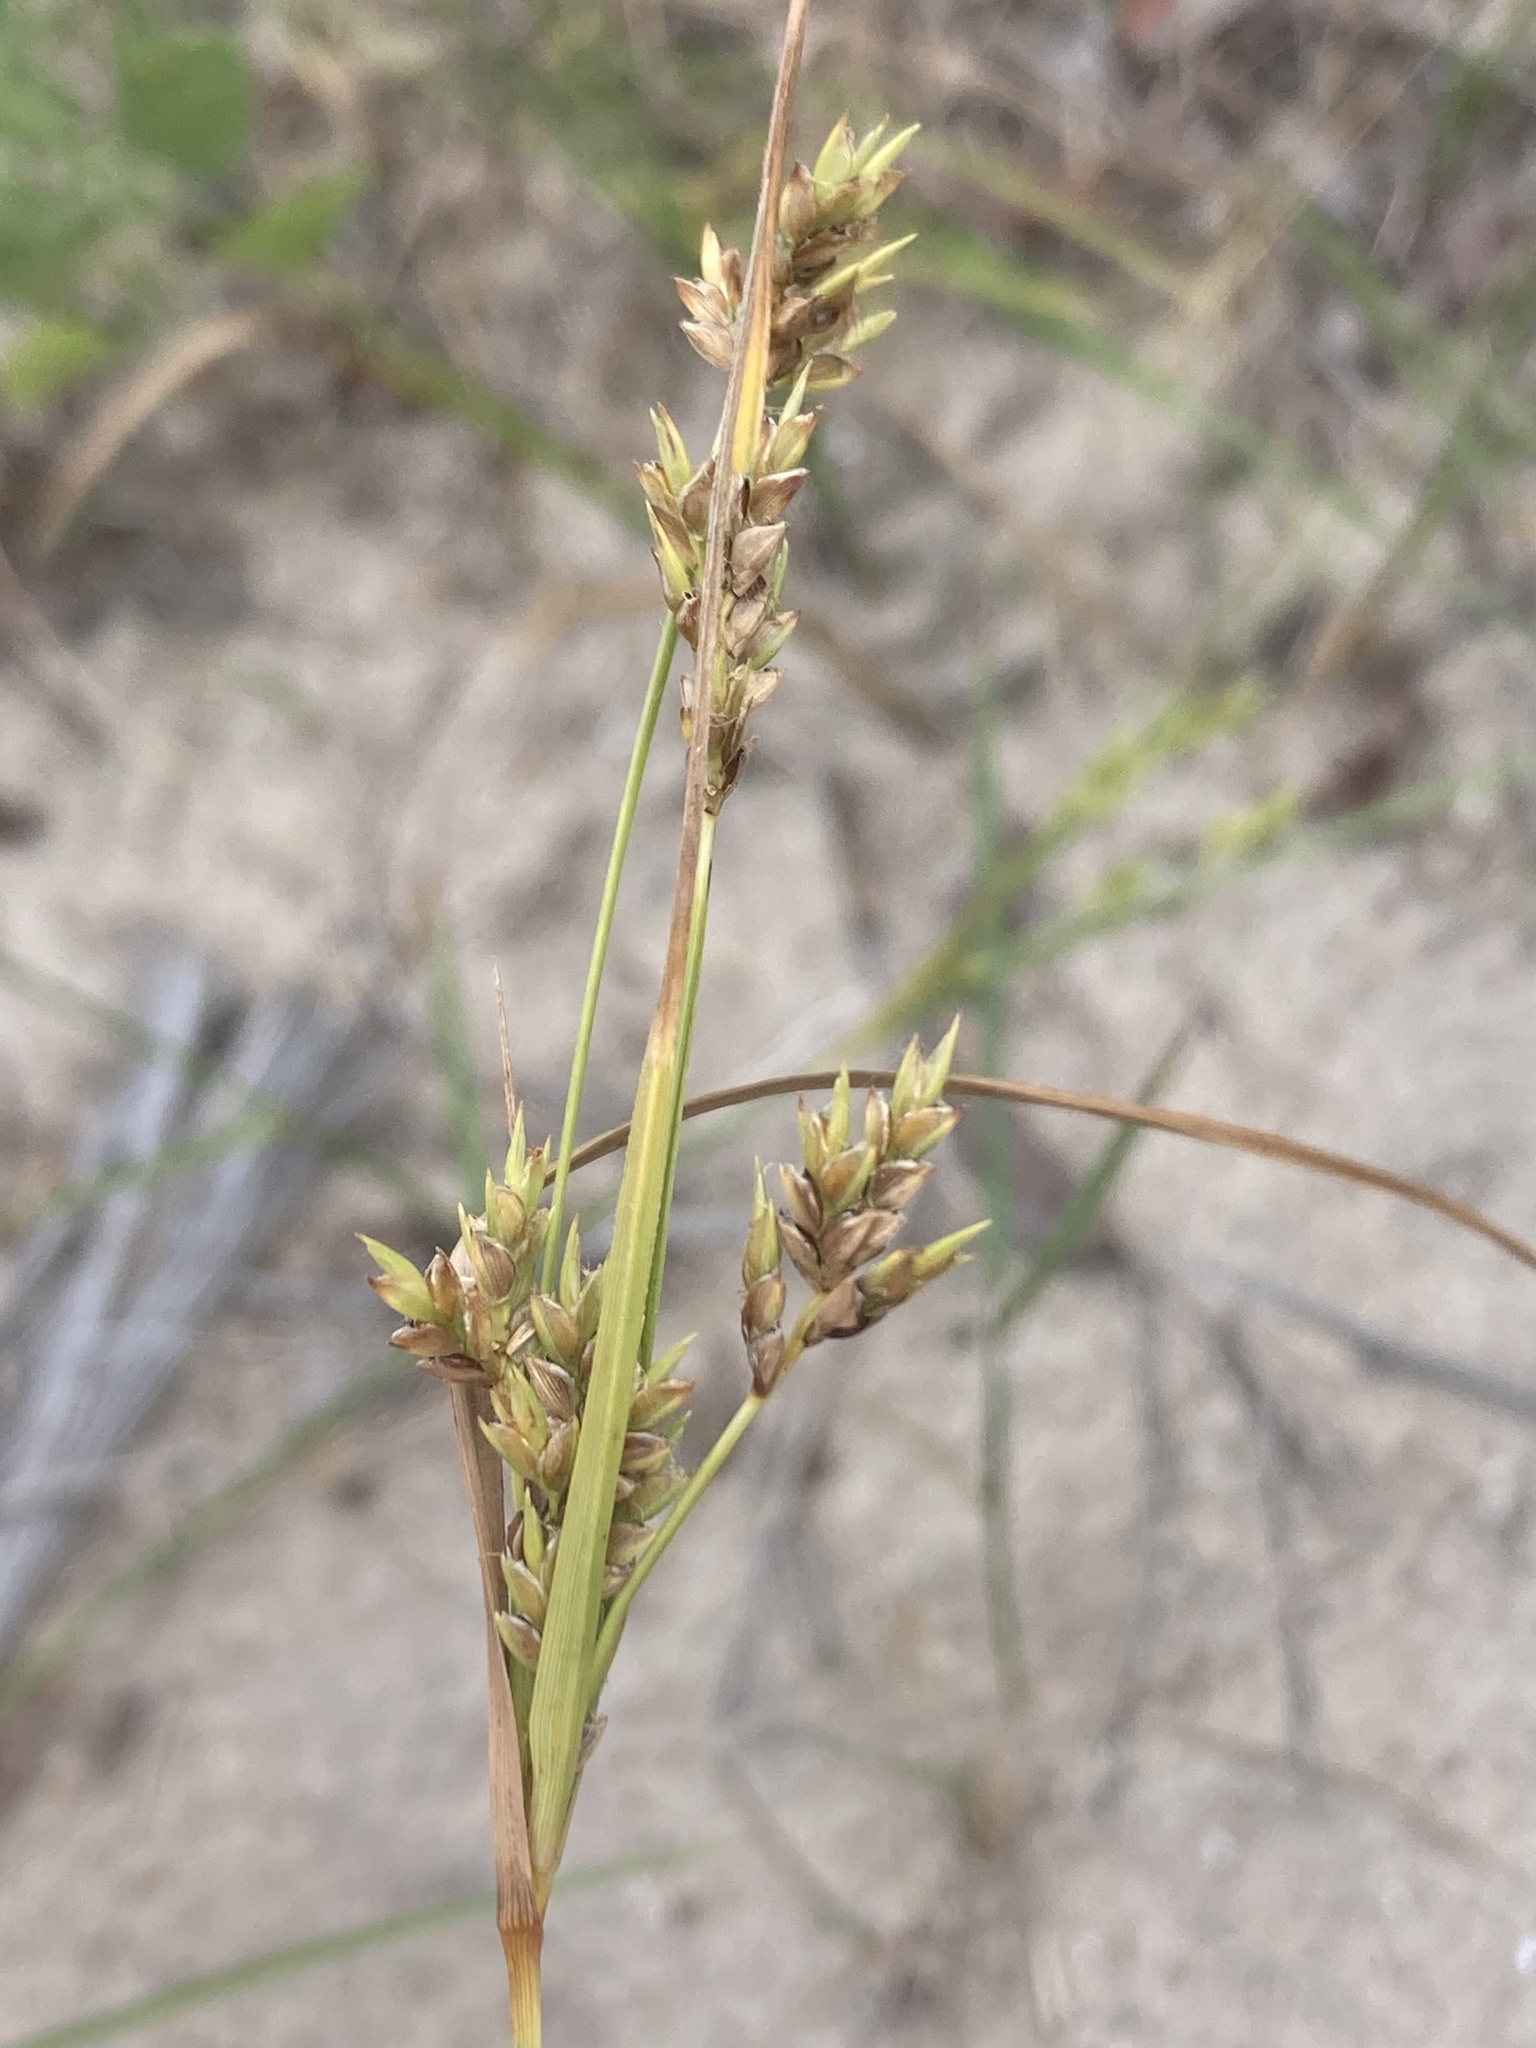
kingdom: Plantae
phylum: Tracheophyta
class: Liliopsida
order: Poales
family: Cyperaceae
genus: Cyperus
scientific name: Cyperus schweinitzii
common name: Schweinitz's cyperus
